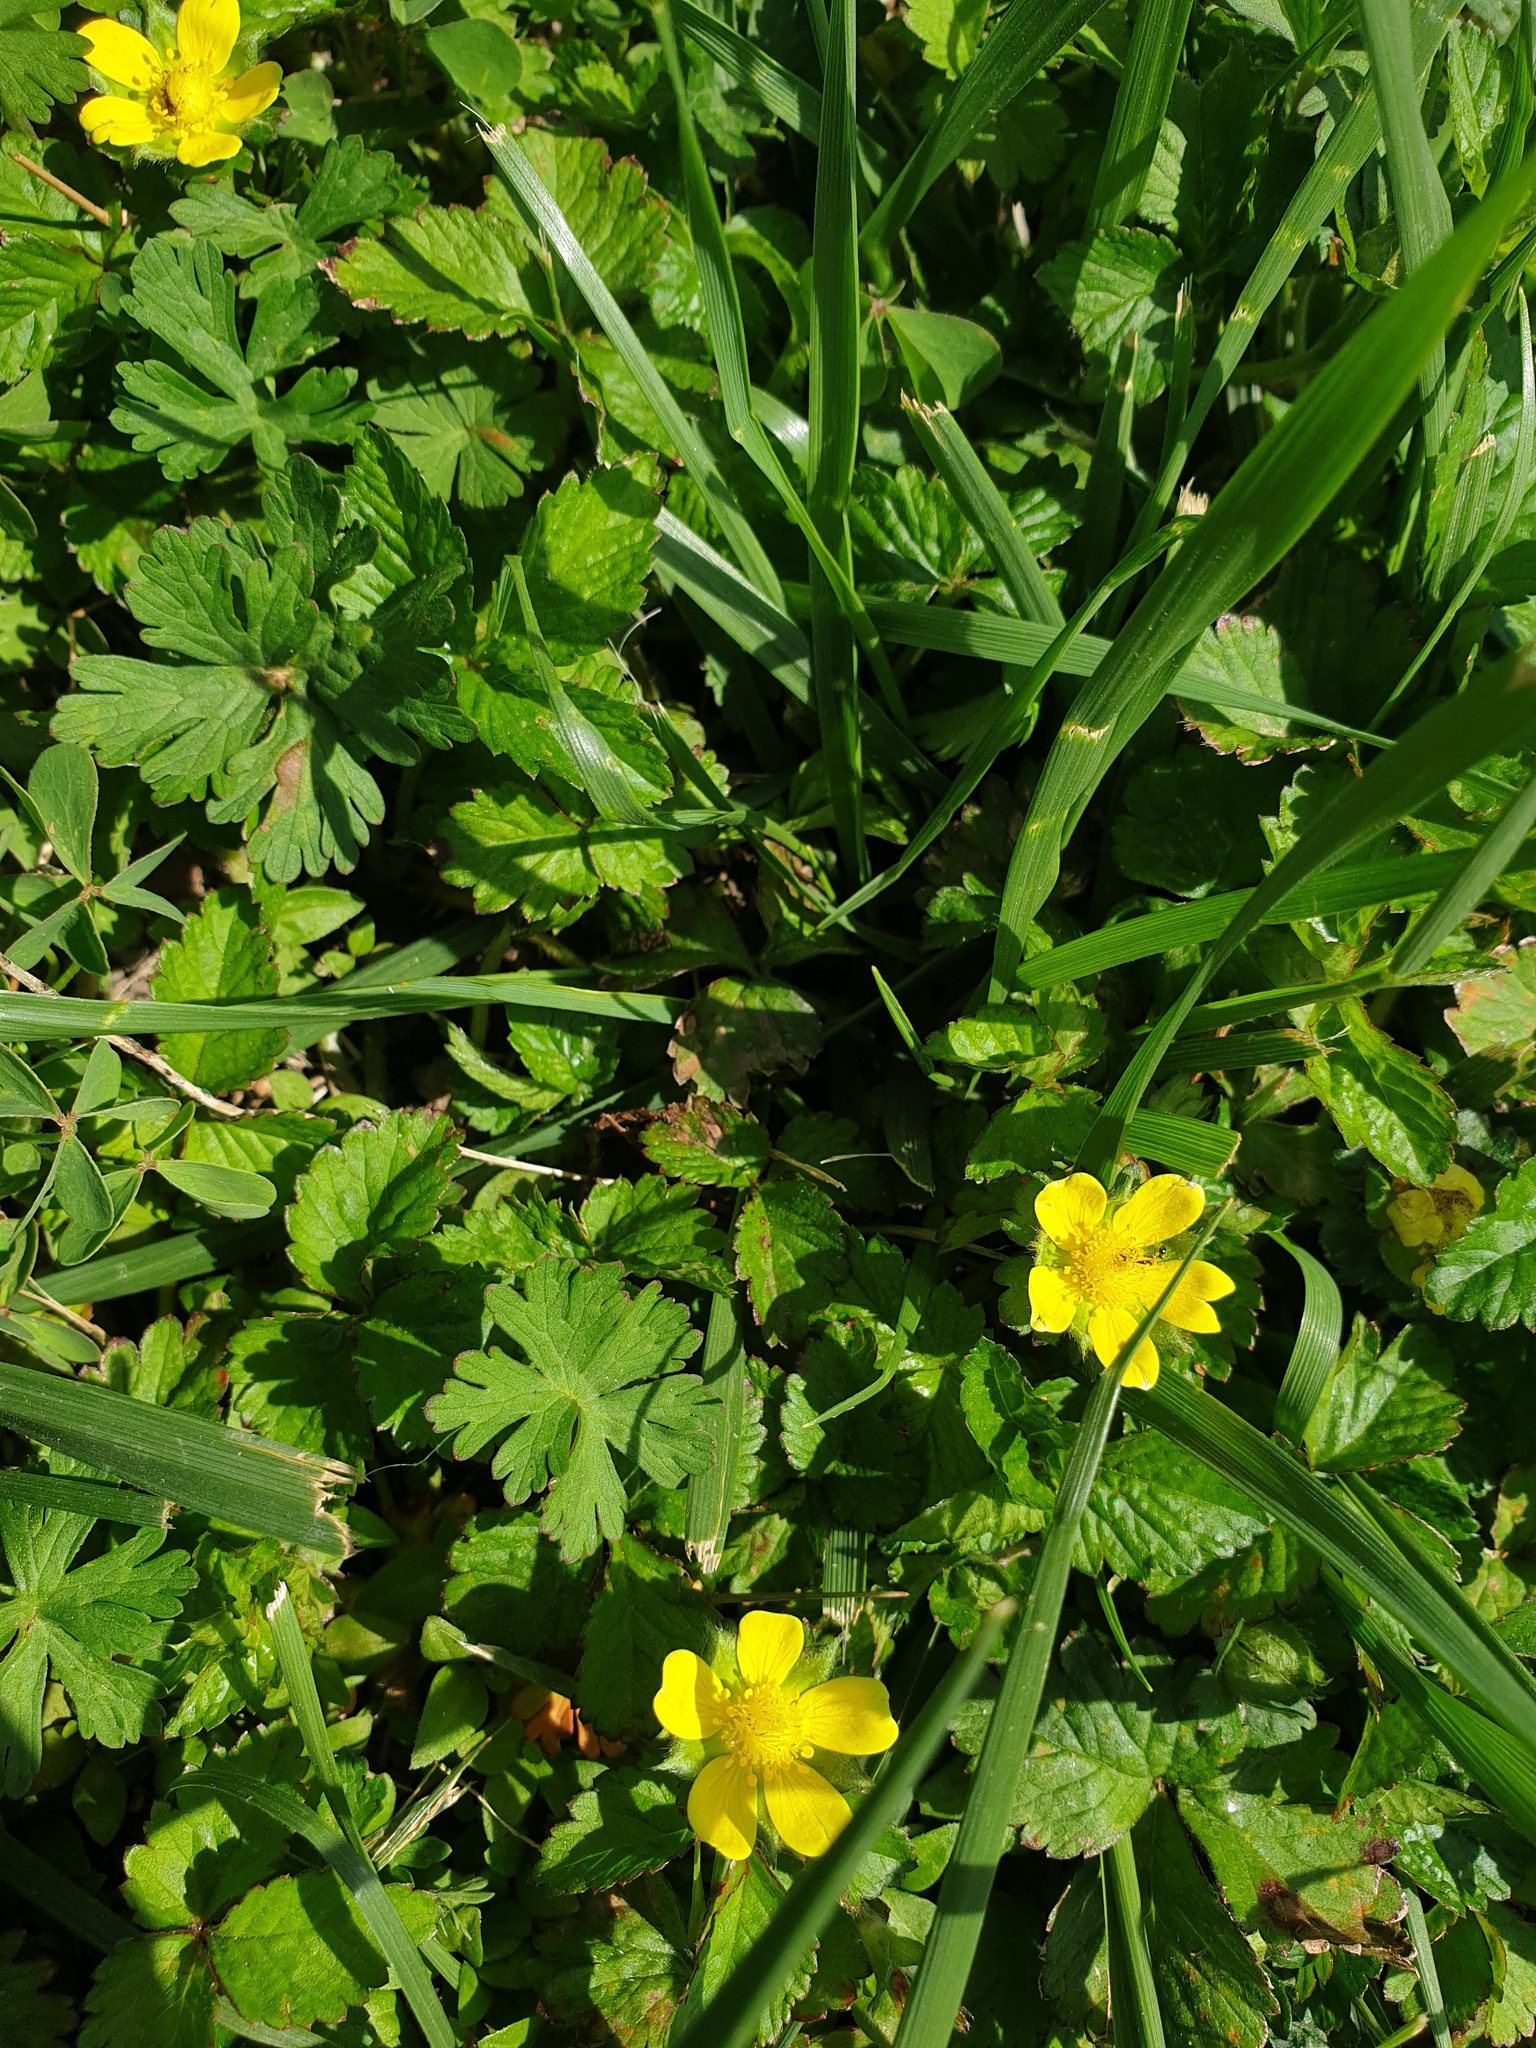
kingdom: Plantae
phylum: Tracheophyta
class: Magnoliopsida
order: Rosales
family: Rosaceae
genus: Potentilla
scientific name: Potentilla indica
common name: Yellow-flowered strawberry
